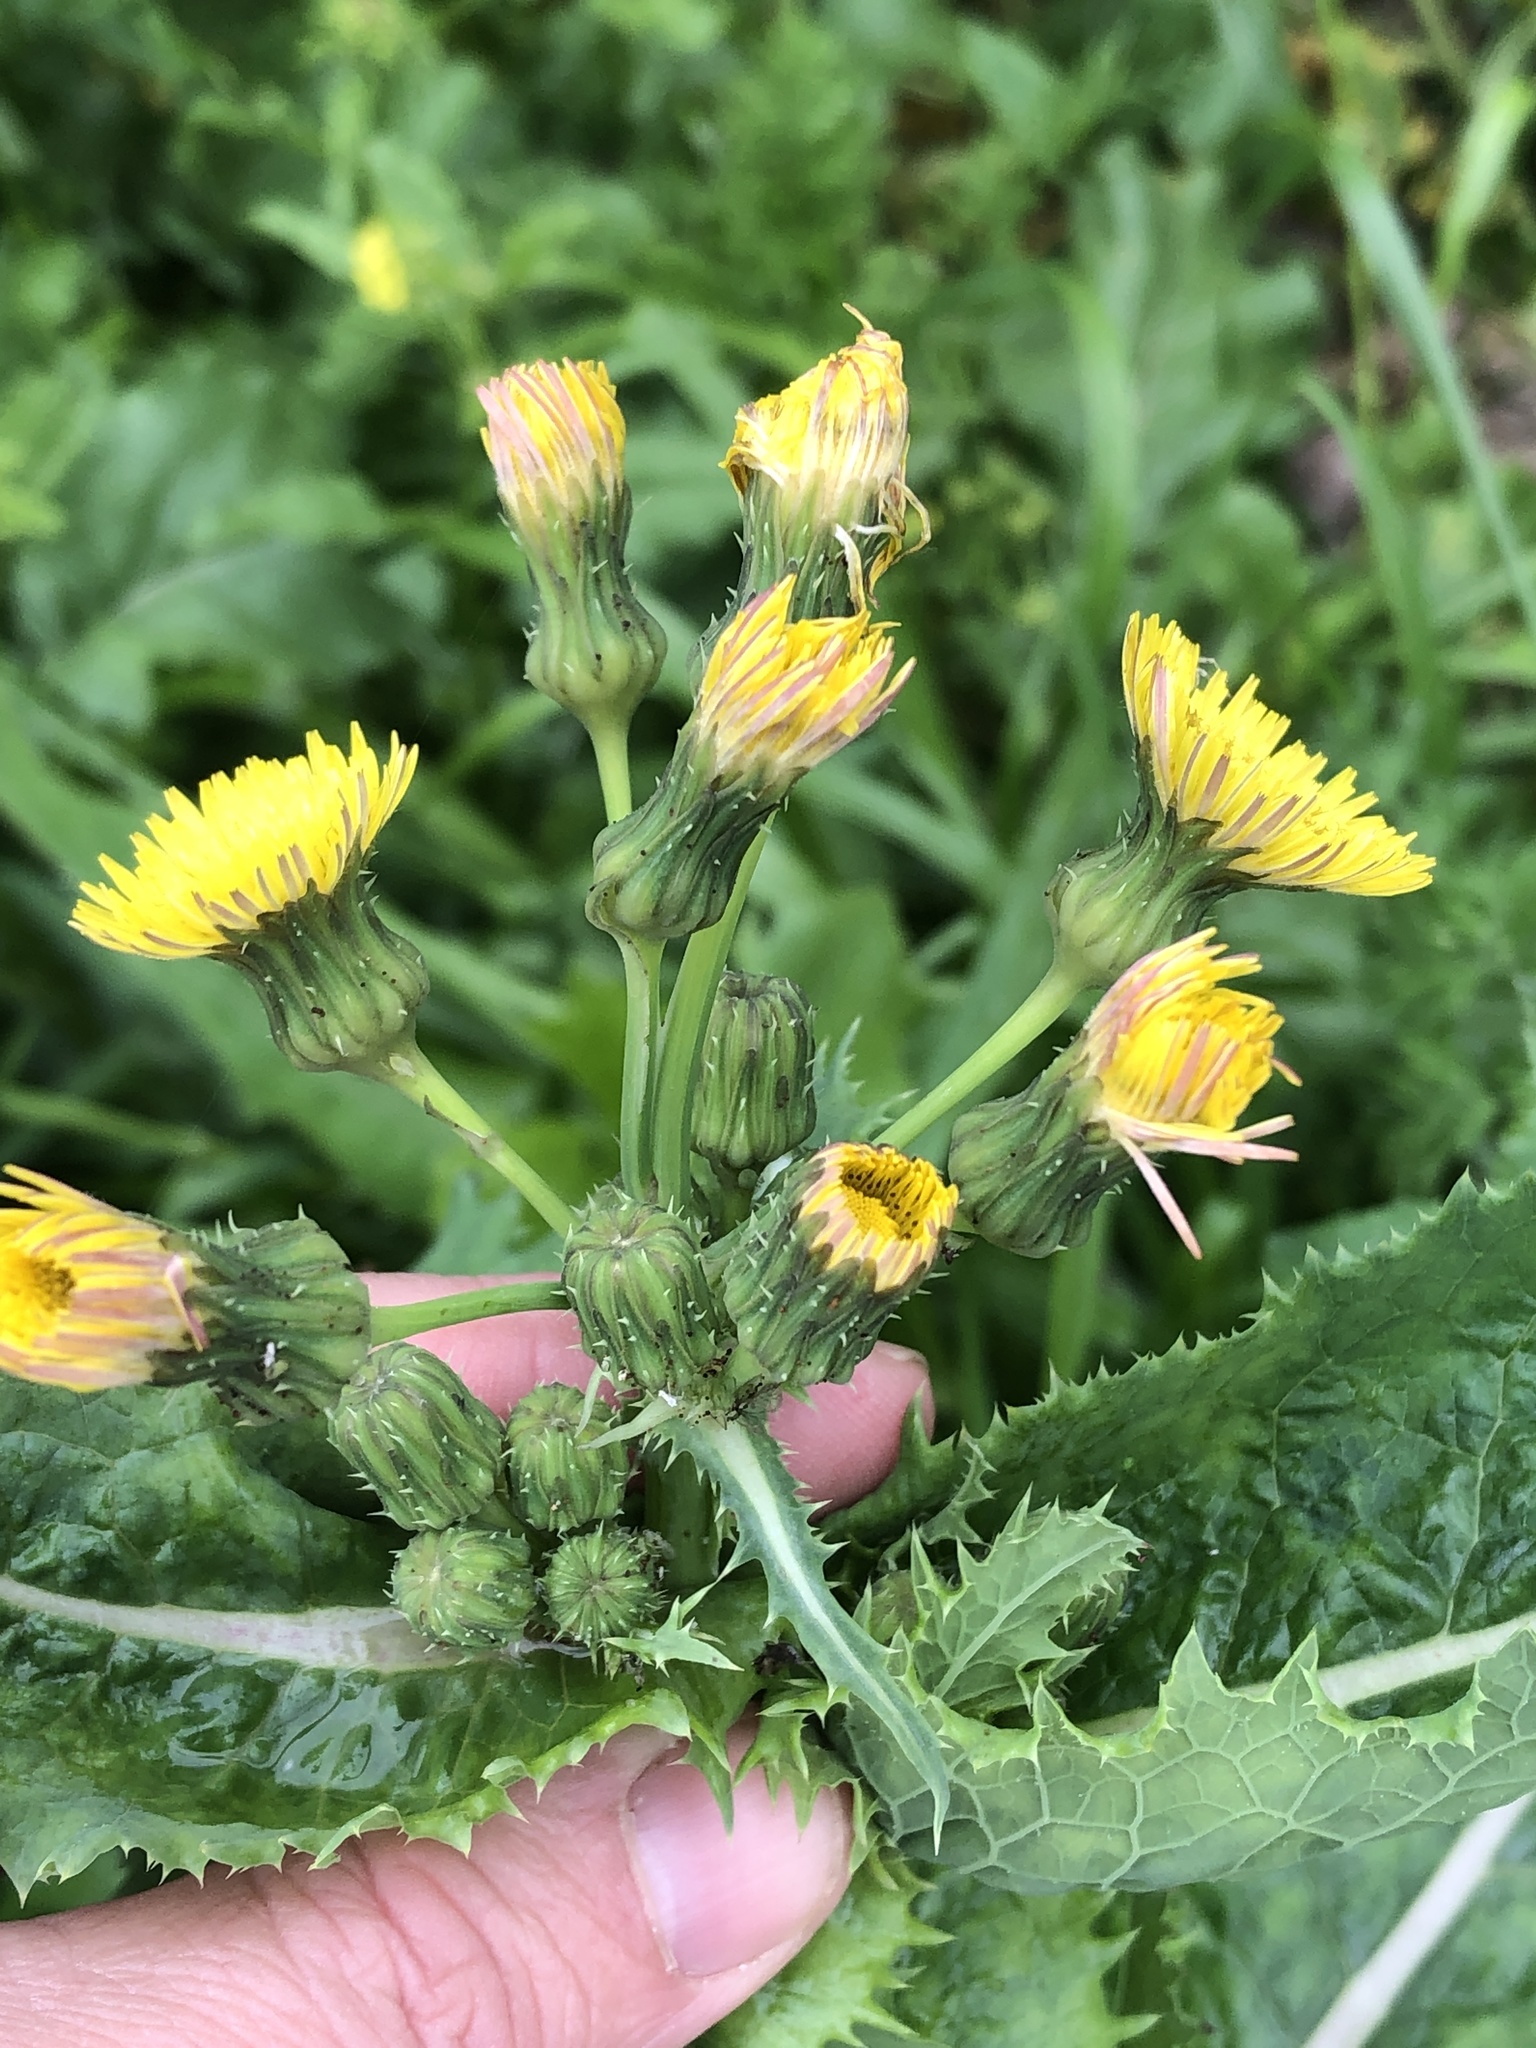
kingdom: Plantae
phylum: Tracheophyta
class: Magnoliopsida
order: Asterales
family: Asteraceae
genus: Sonchus
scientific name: Sonchus asper
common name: Prickly sow-thistle
